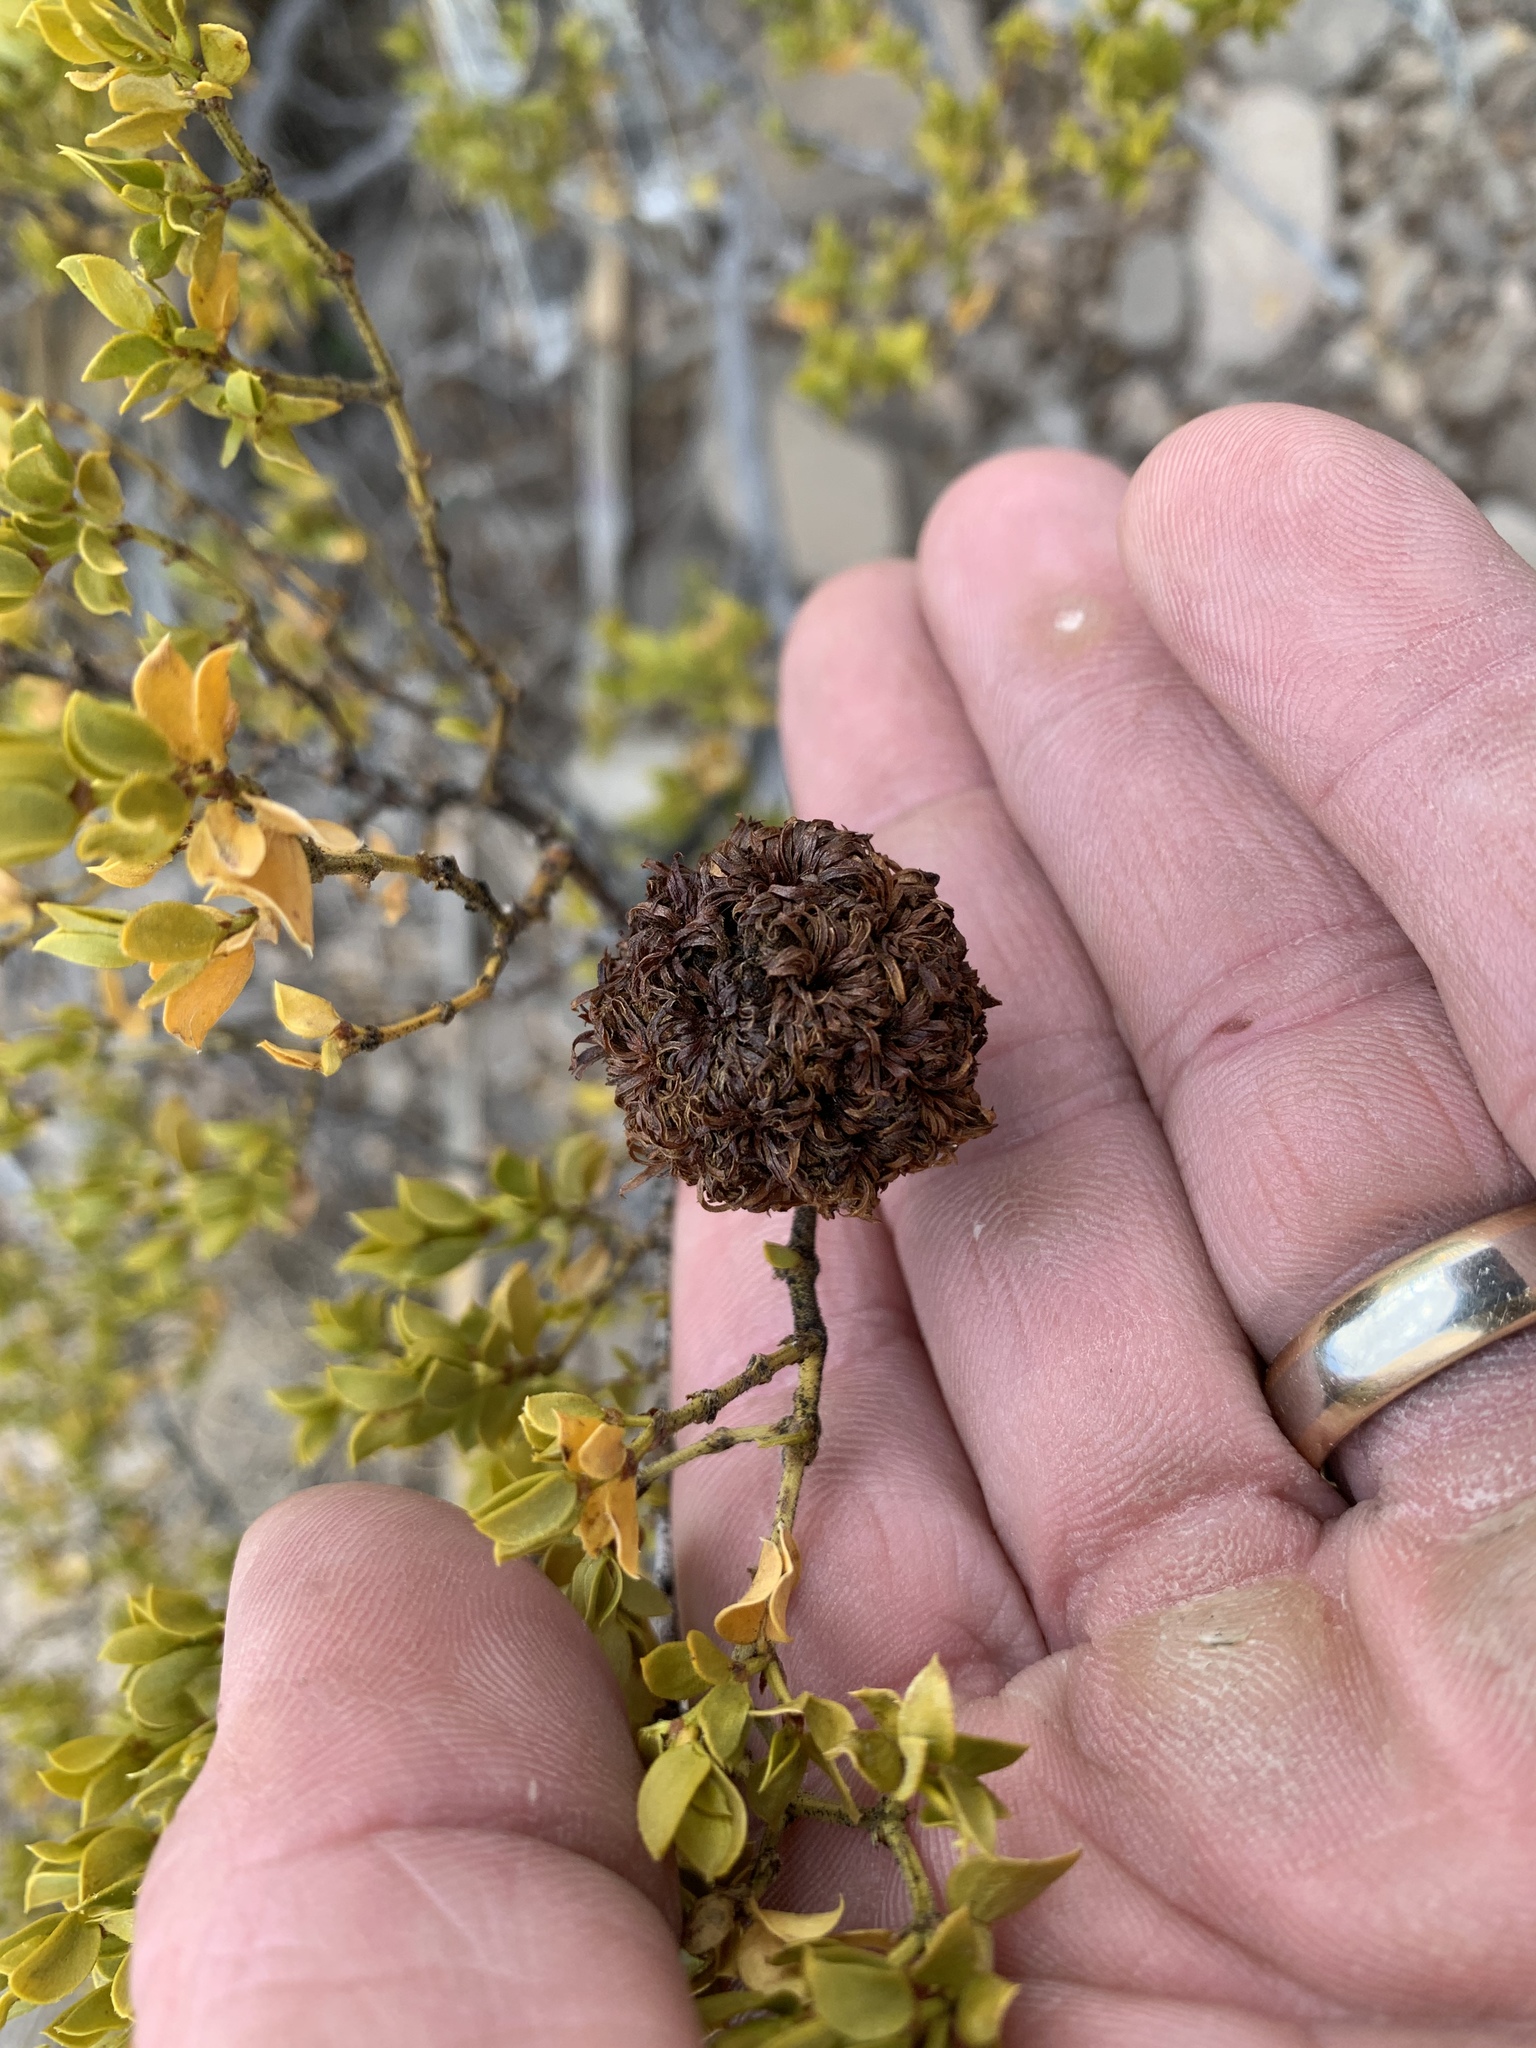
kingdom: Animalia
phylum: Arthropoda
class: Insecta
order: Diptera
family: Cecidomyiidae
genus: Asphondylia
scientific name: Asphondylia auripila
